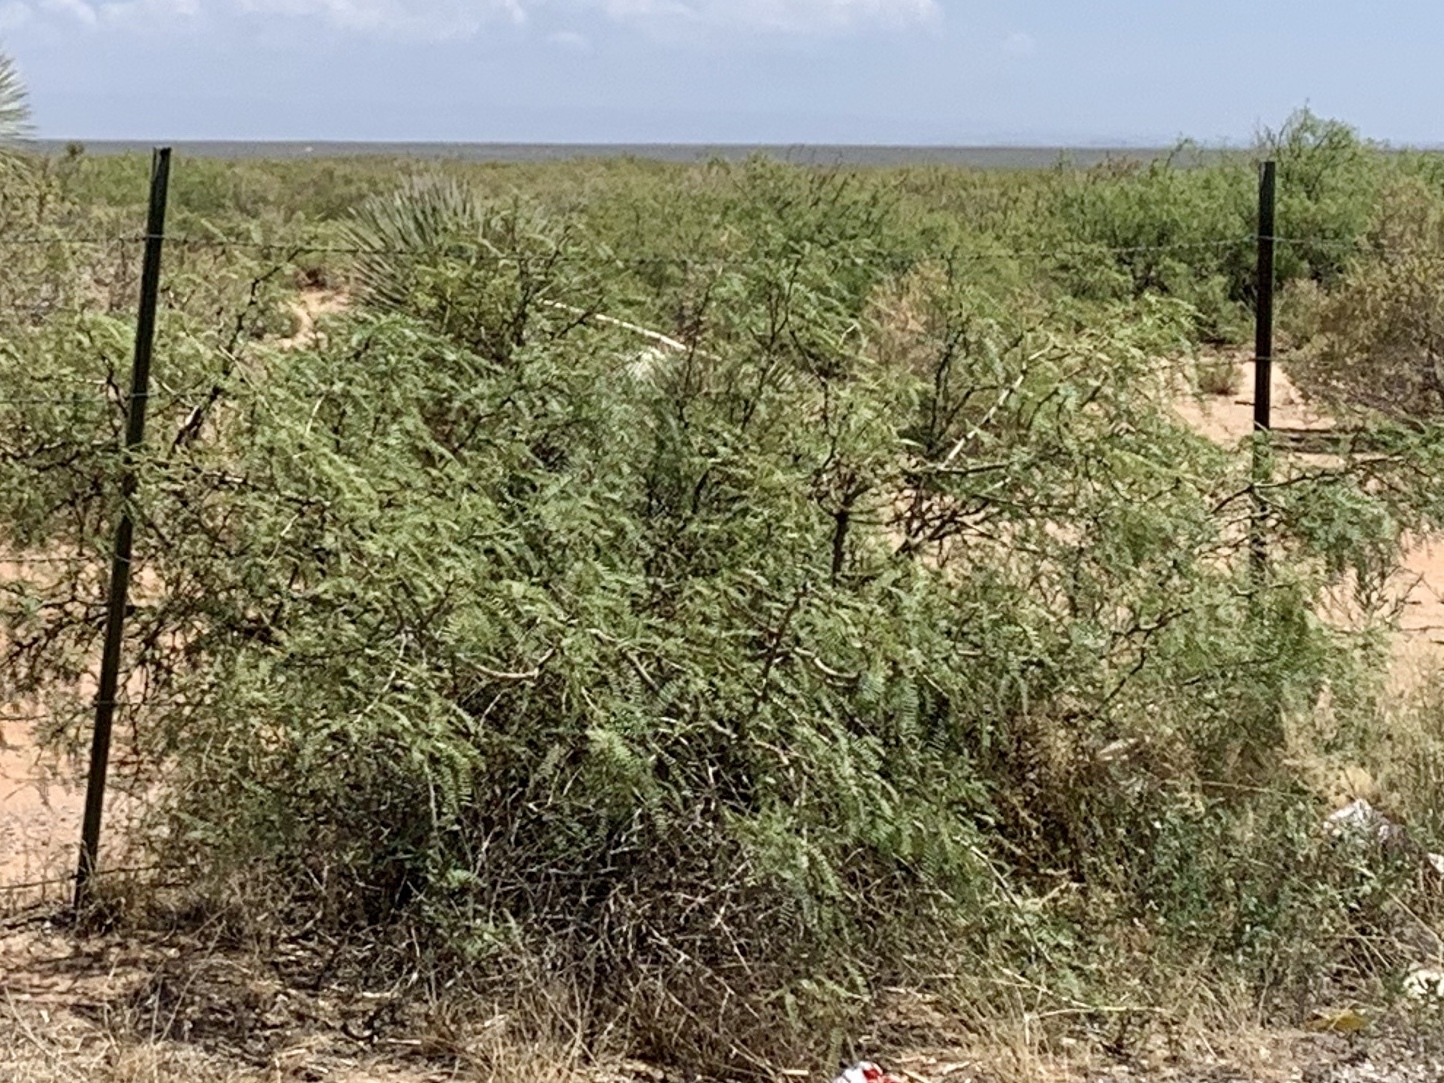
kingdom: Plantae
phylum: Tracheophyta
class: Magnoliopsida
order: Fabales
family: Fabaceae
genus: Prosopis
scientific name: Prosopis glandulosa
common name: Honey mesquite
